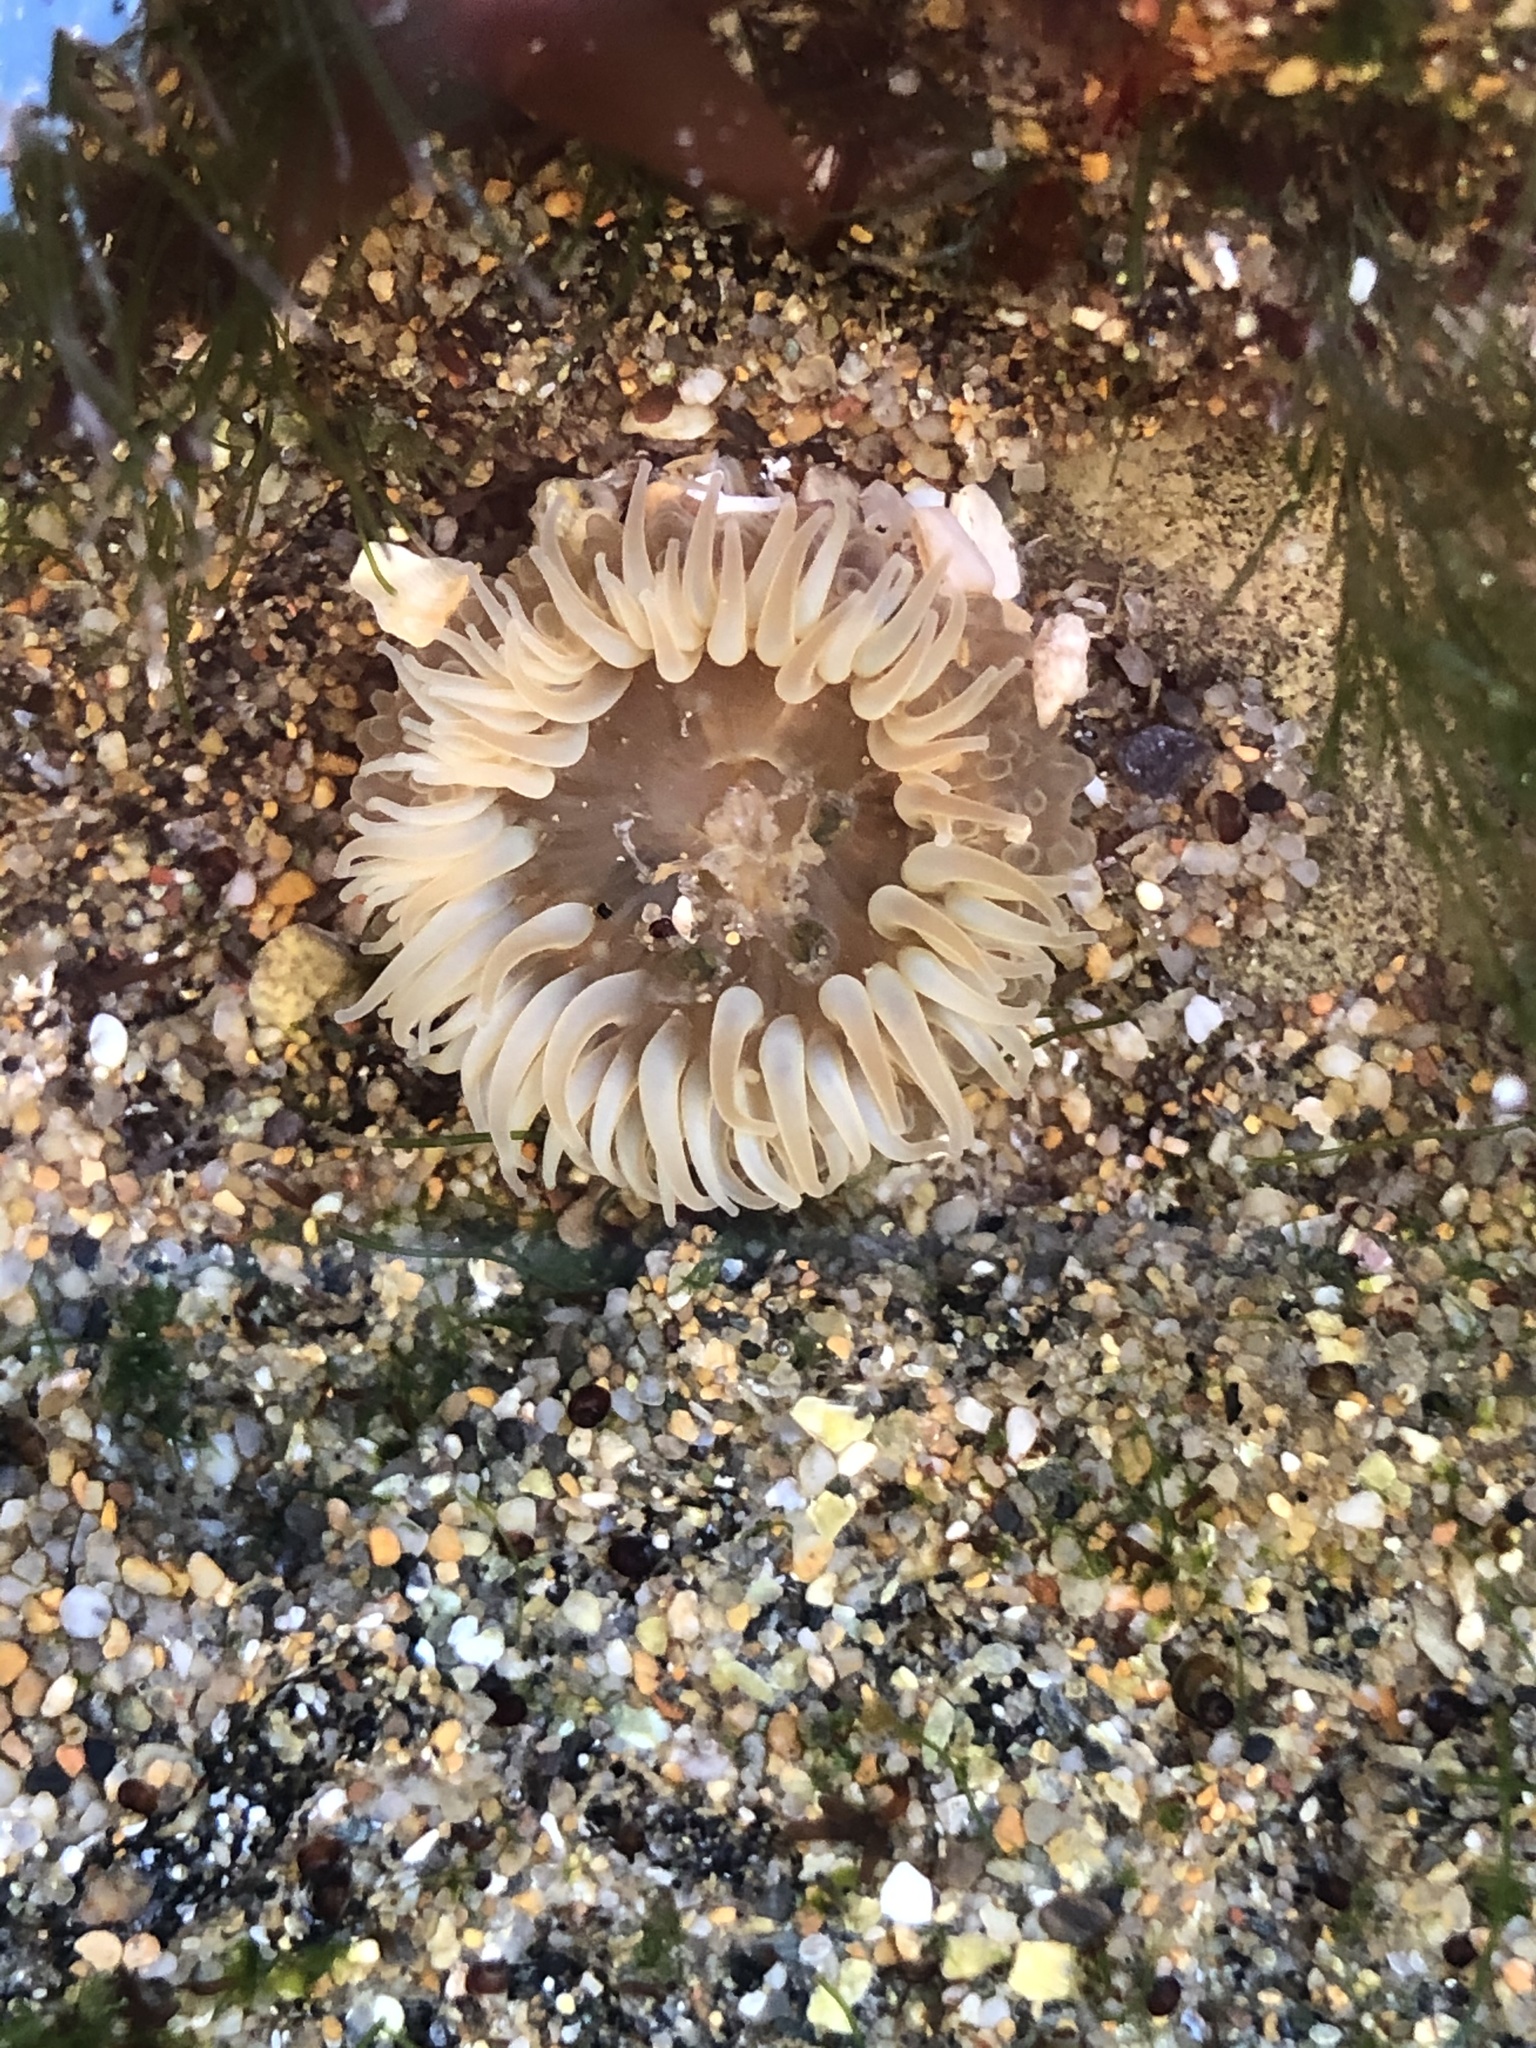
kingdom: Animalia
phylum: Cnidaria
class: Anthozoa
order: Actiniaria
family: Actiniidae
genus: Anthopleura
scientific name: Anthopleura elegantissima
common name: Clonal anemone
